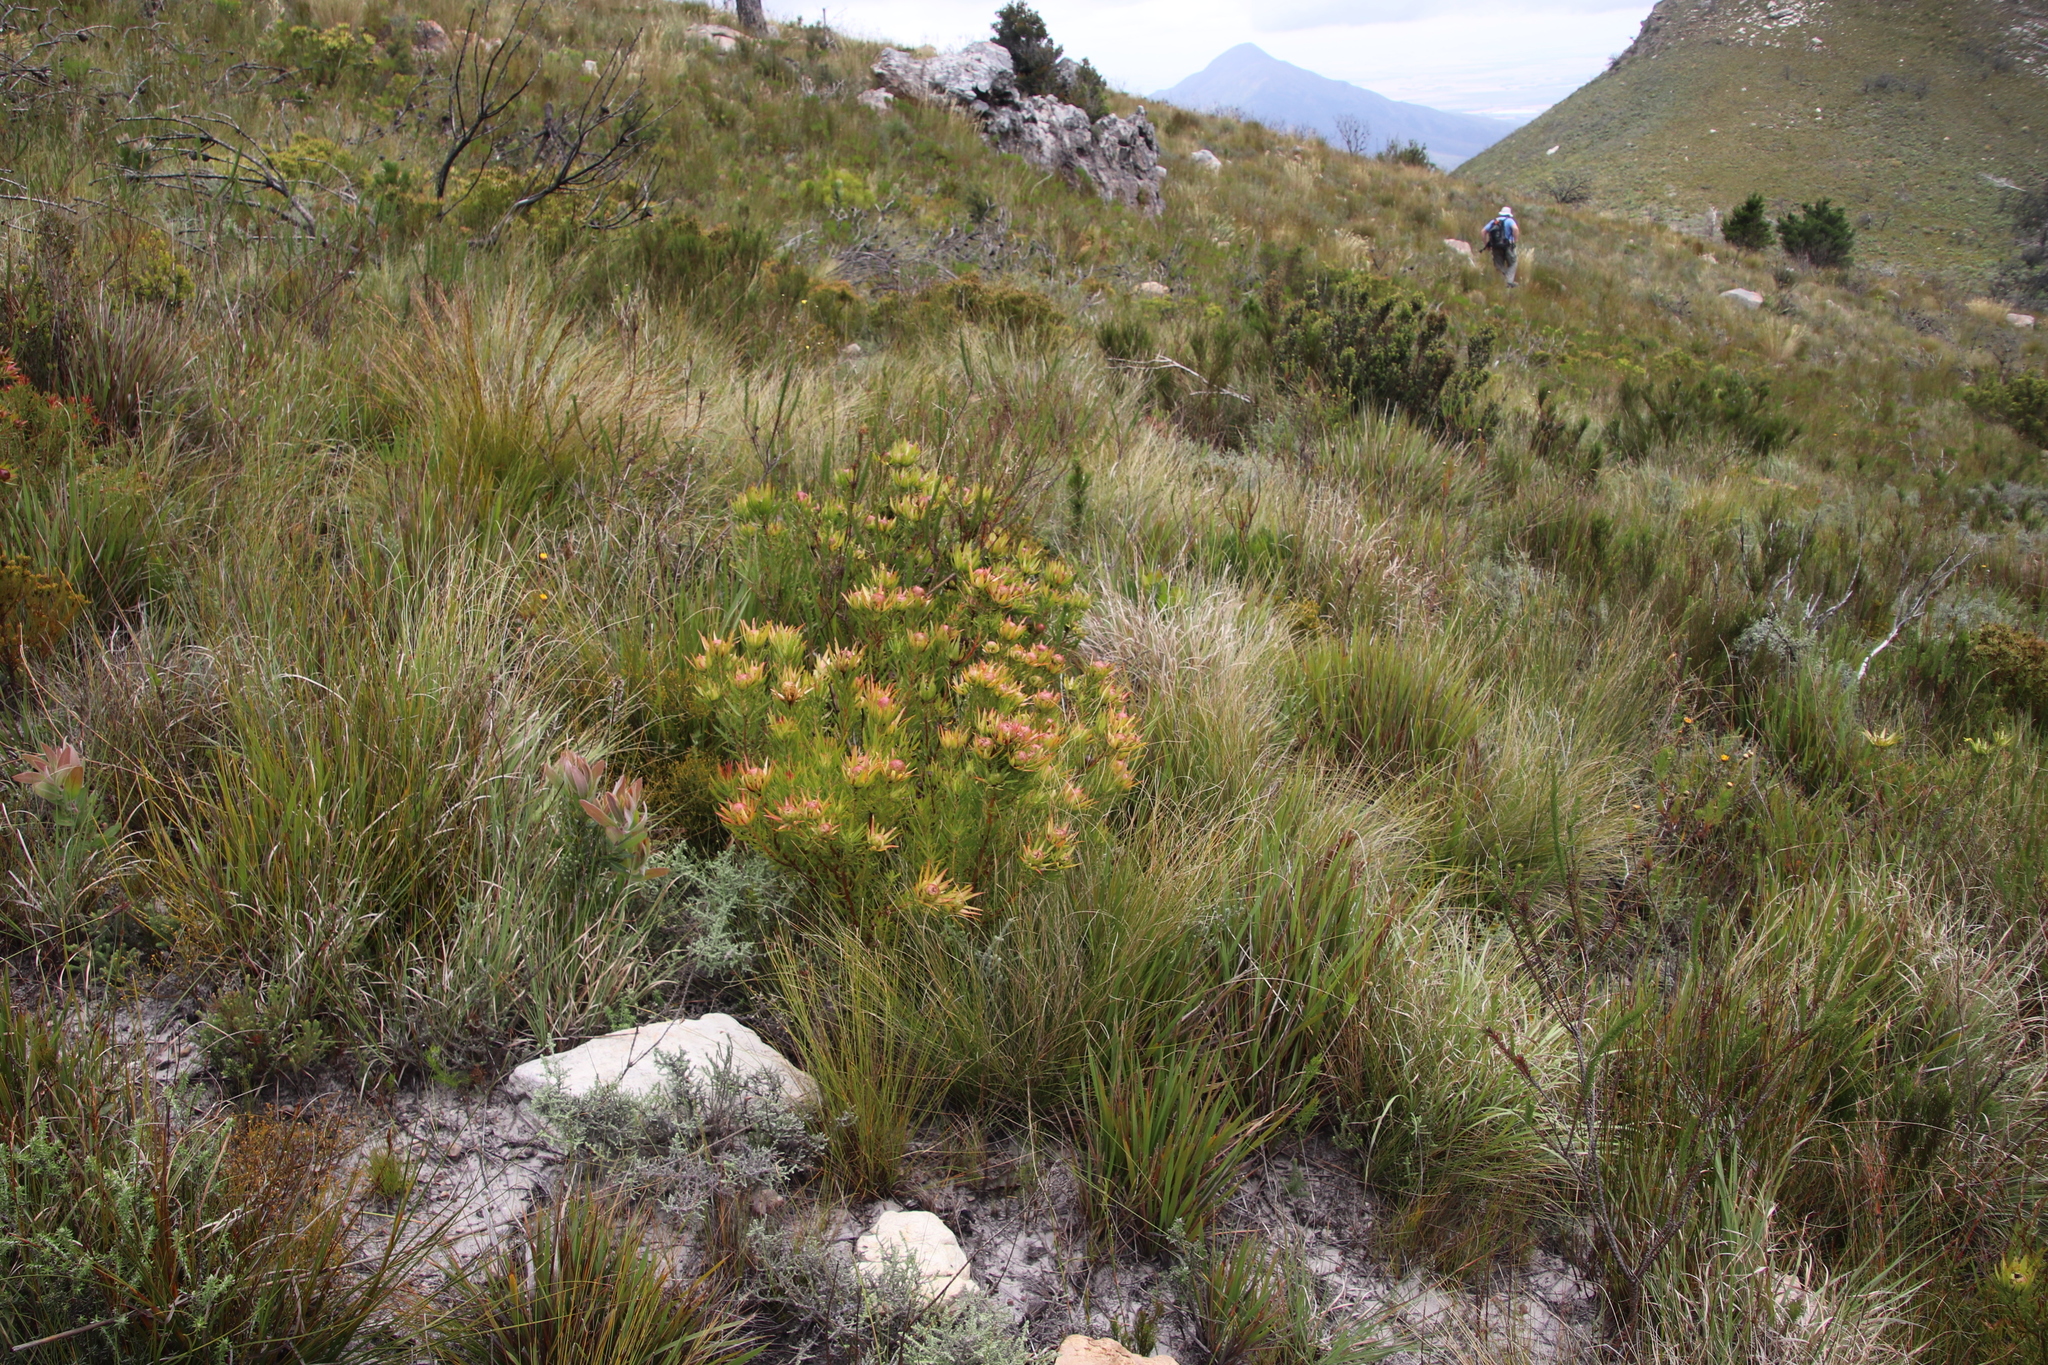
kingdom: Plantae
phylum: Tracheophyta
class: Magnoliopsida
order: Proteales
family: Proteaceae
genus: Leucadendron
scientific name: Leucadendron spissifolium
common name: Spear-leaf conebush
